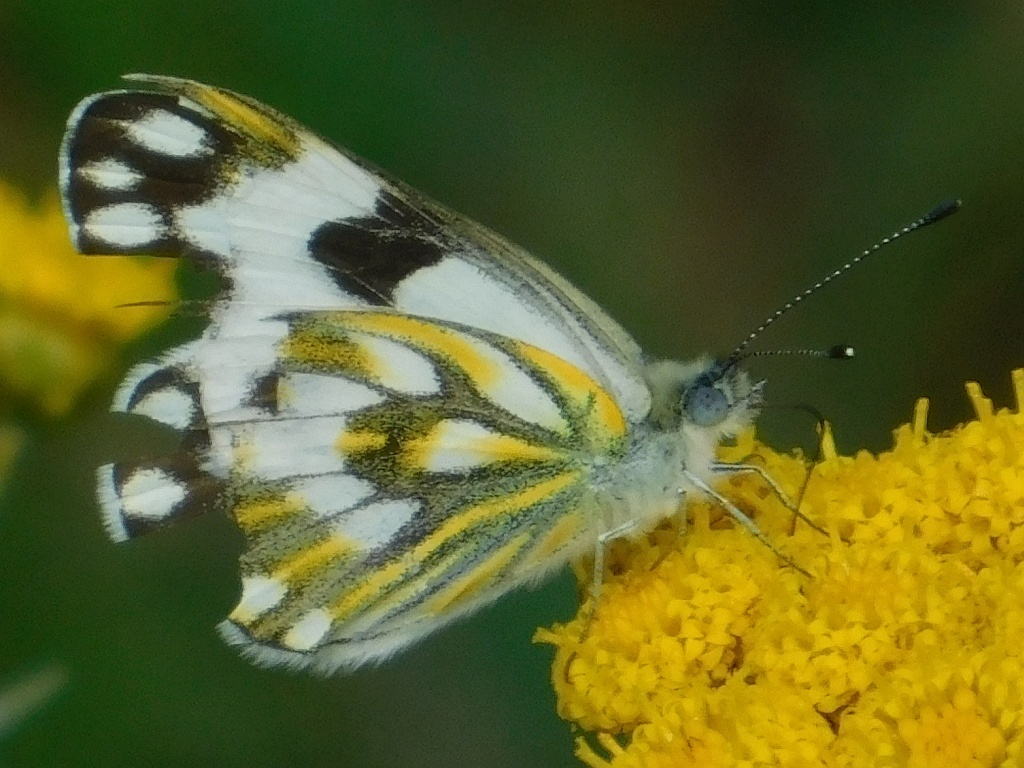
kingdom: Animalia
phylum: Arthropoda
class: Insecta
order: Lepidoptera
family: Pieridae
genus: Pontia
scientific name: Pontia helice
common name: Meadow white
